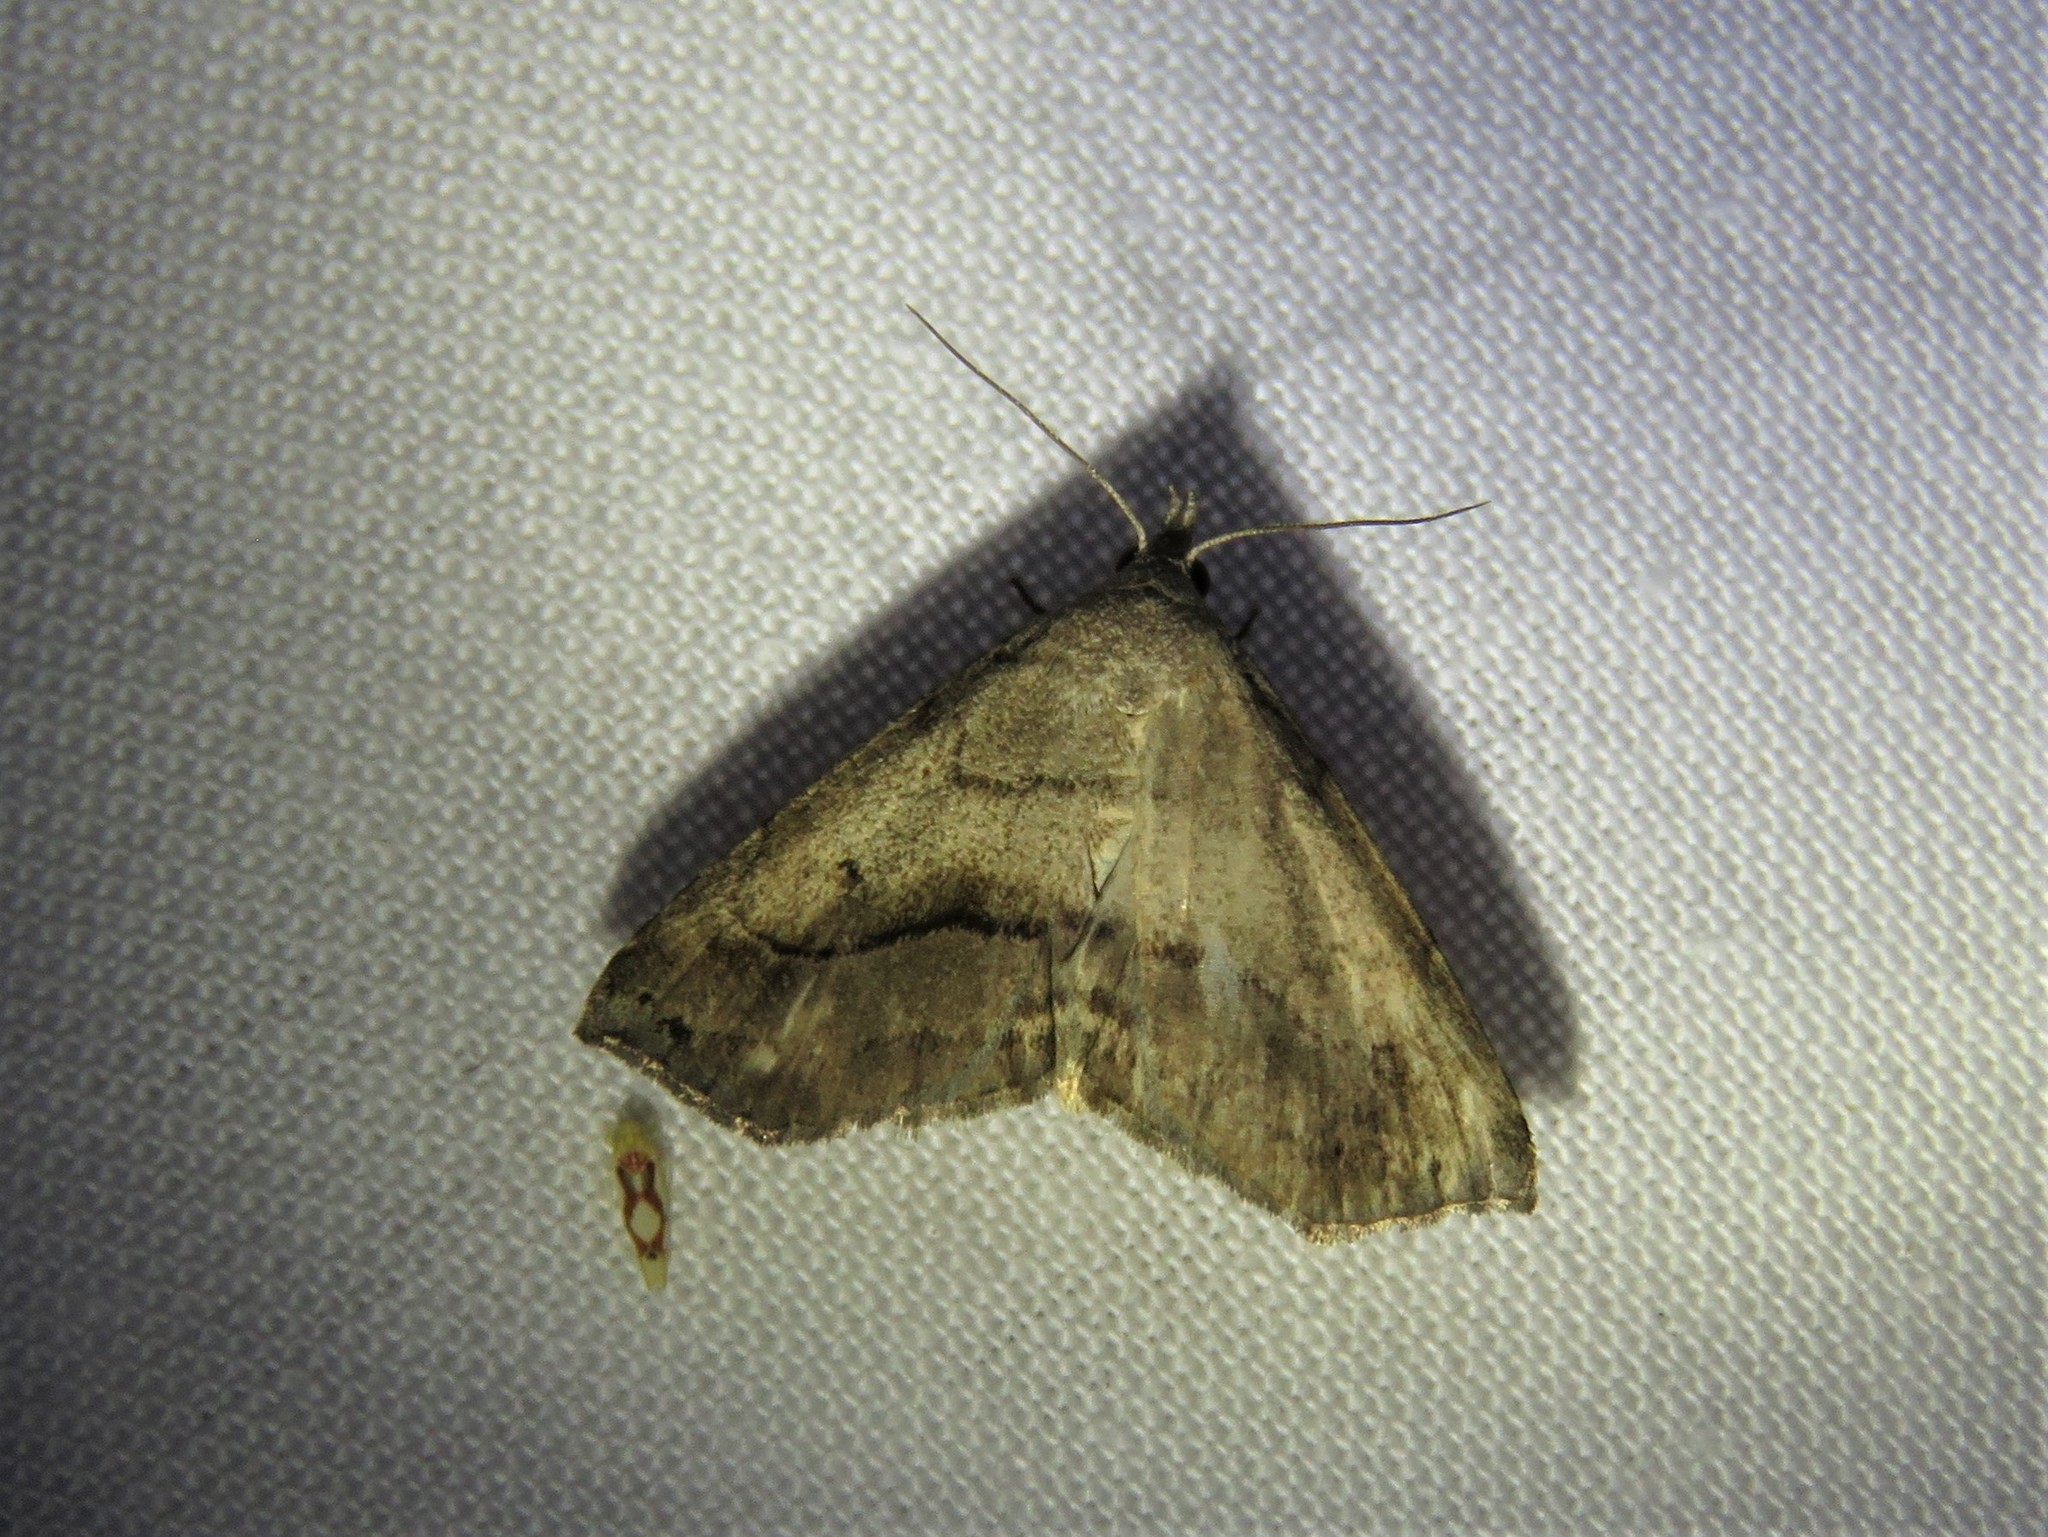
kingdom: Animalia
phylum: Arthropoda
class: Insecta
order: Lepidoptera
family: Erebidae
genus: Spargaloma
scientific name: Spargaloma perditalis
